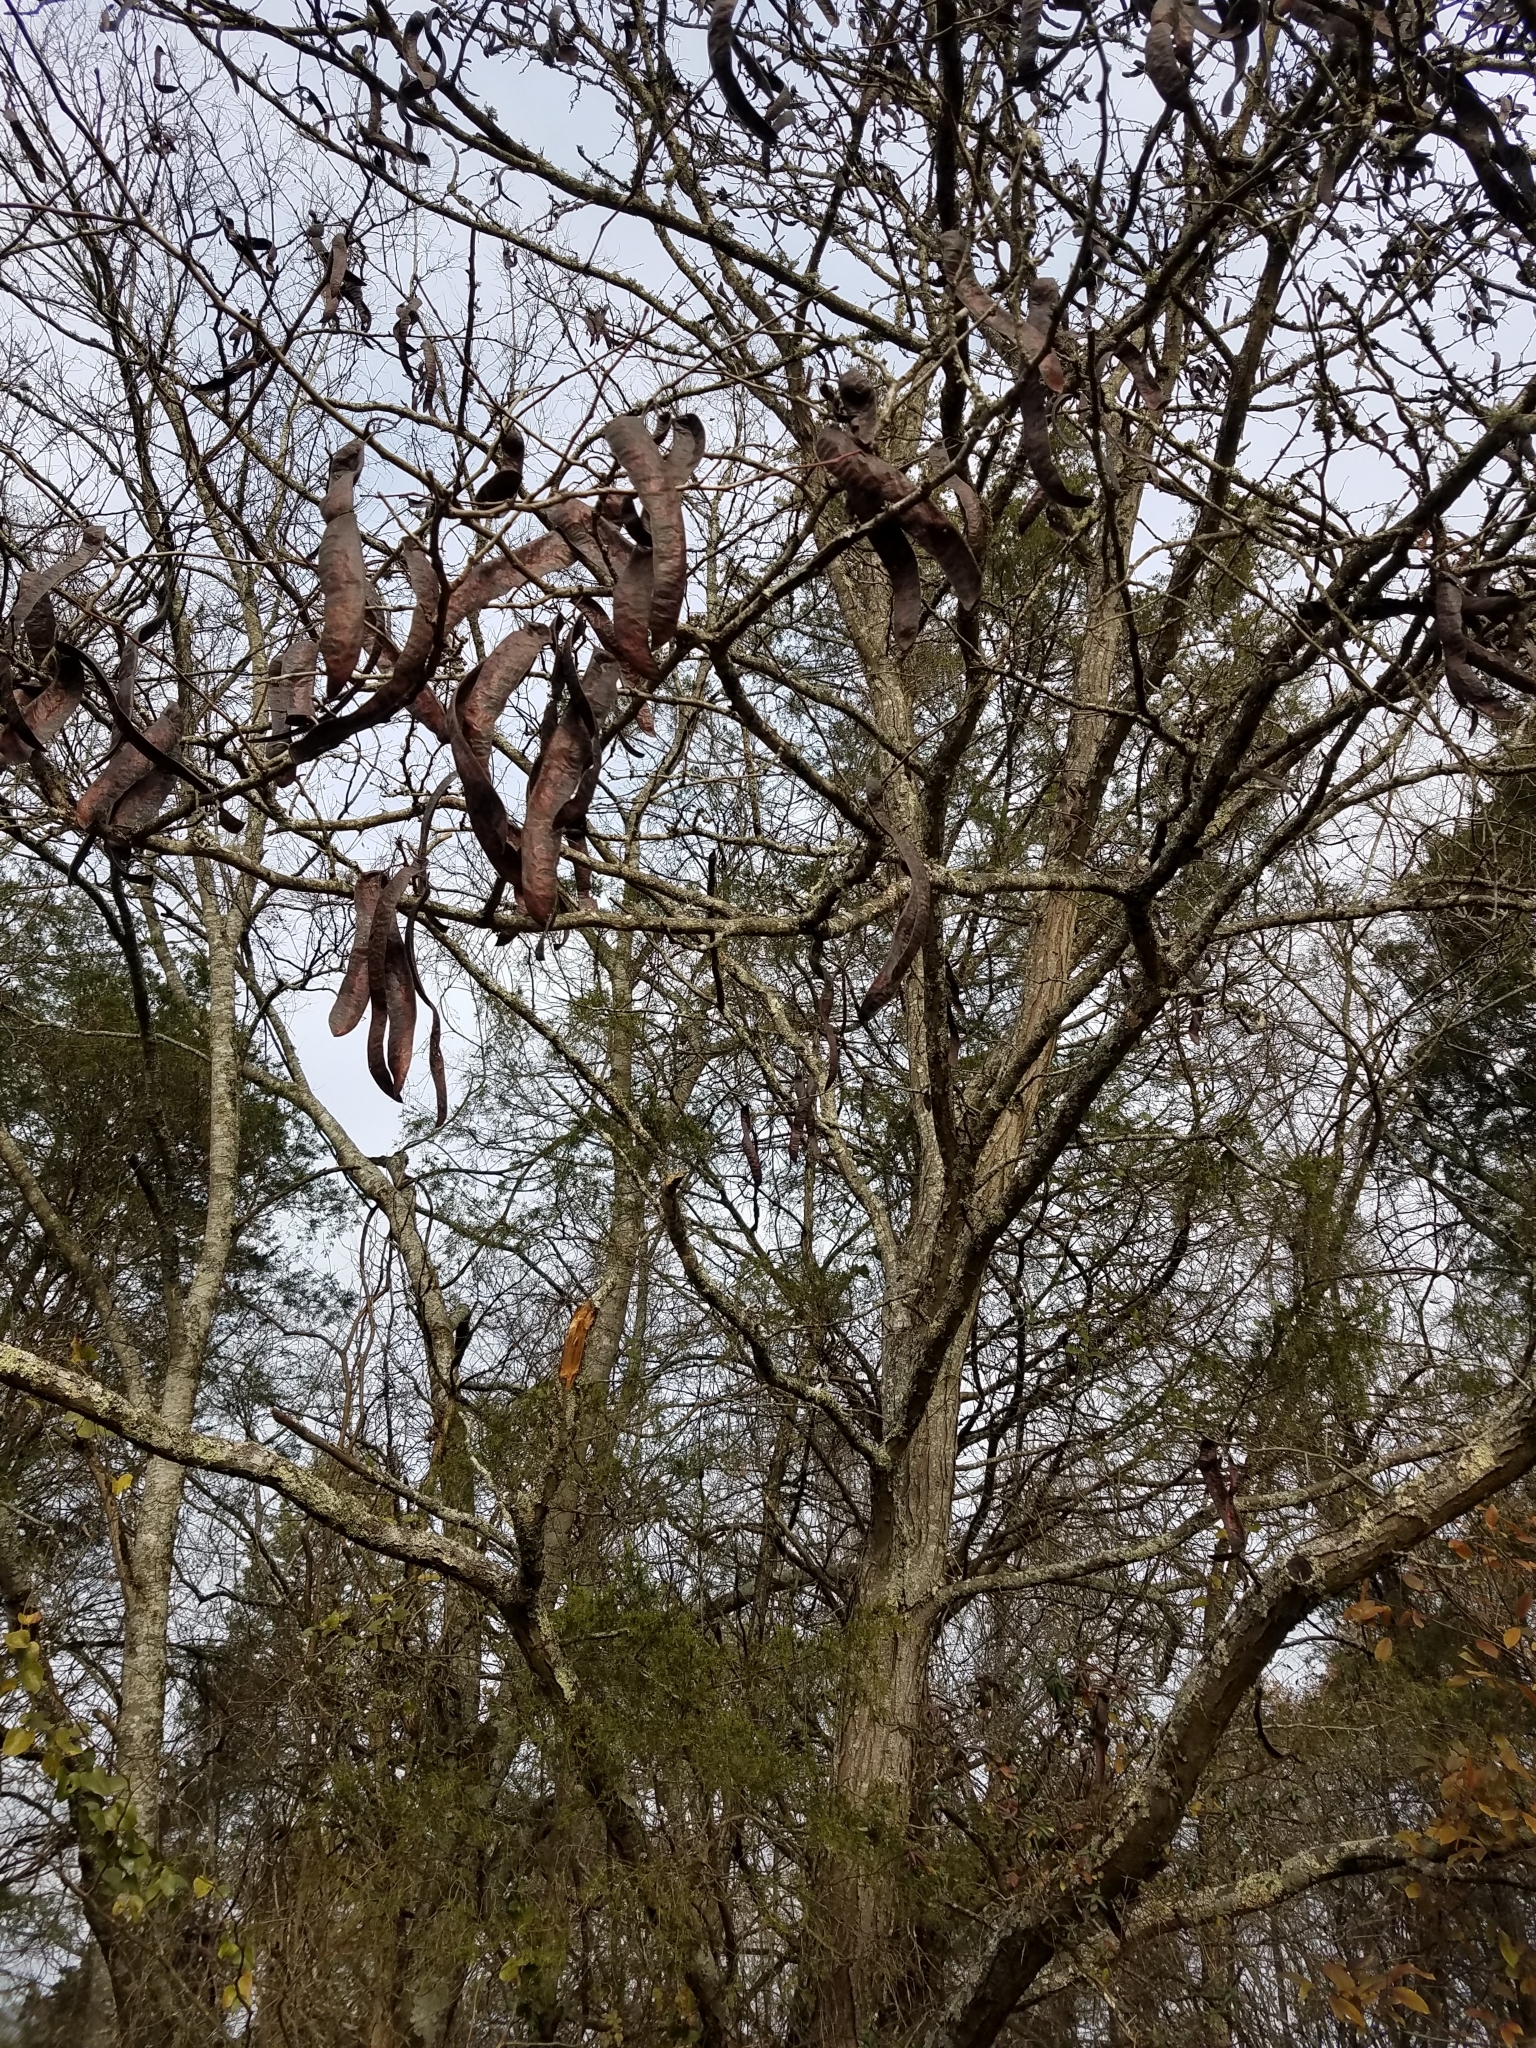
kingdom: Plantae
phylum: Tracheophyta
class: Magnoliopsida
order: Fabales
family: Fabaceae
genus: Gleditsia
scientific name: Gleditsia triacanthos
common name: Common honeylocust
